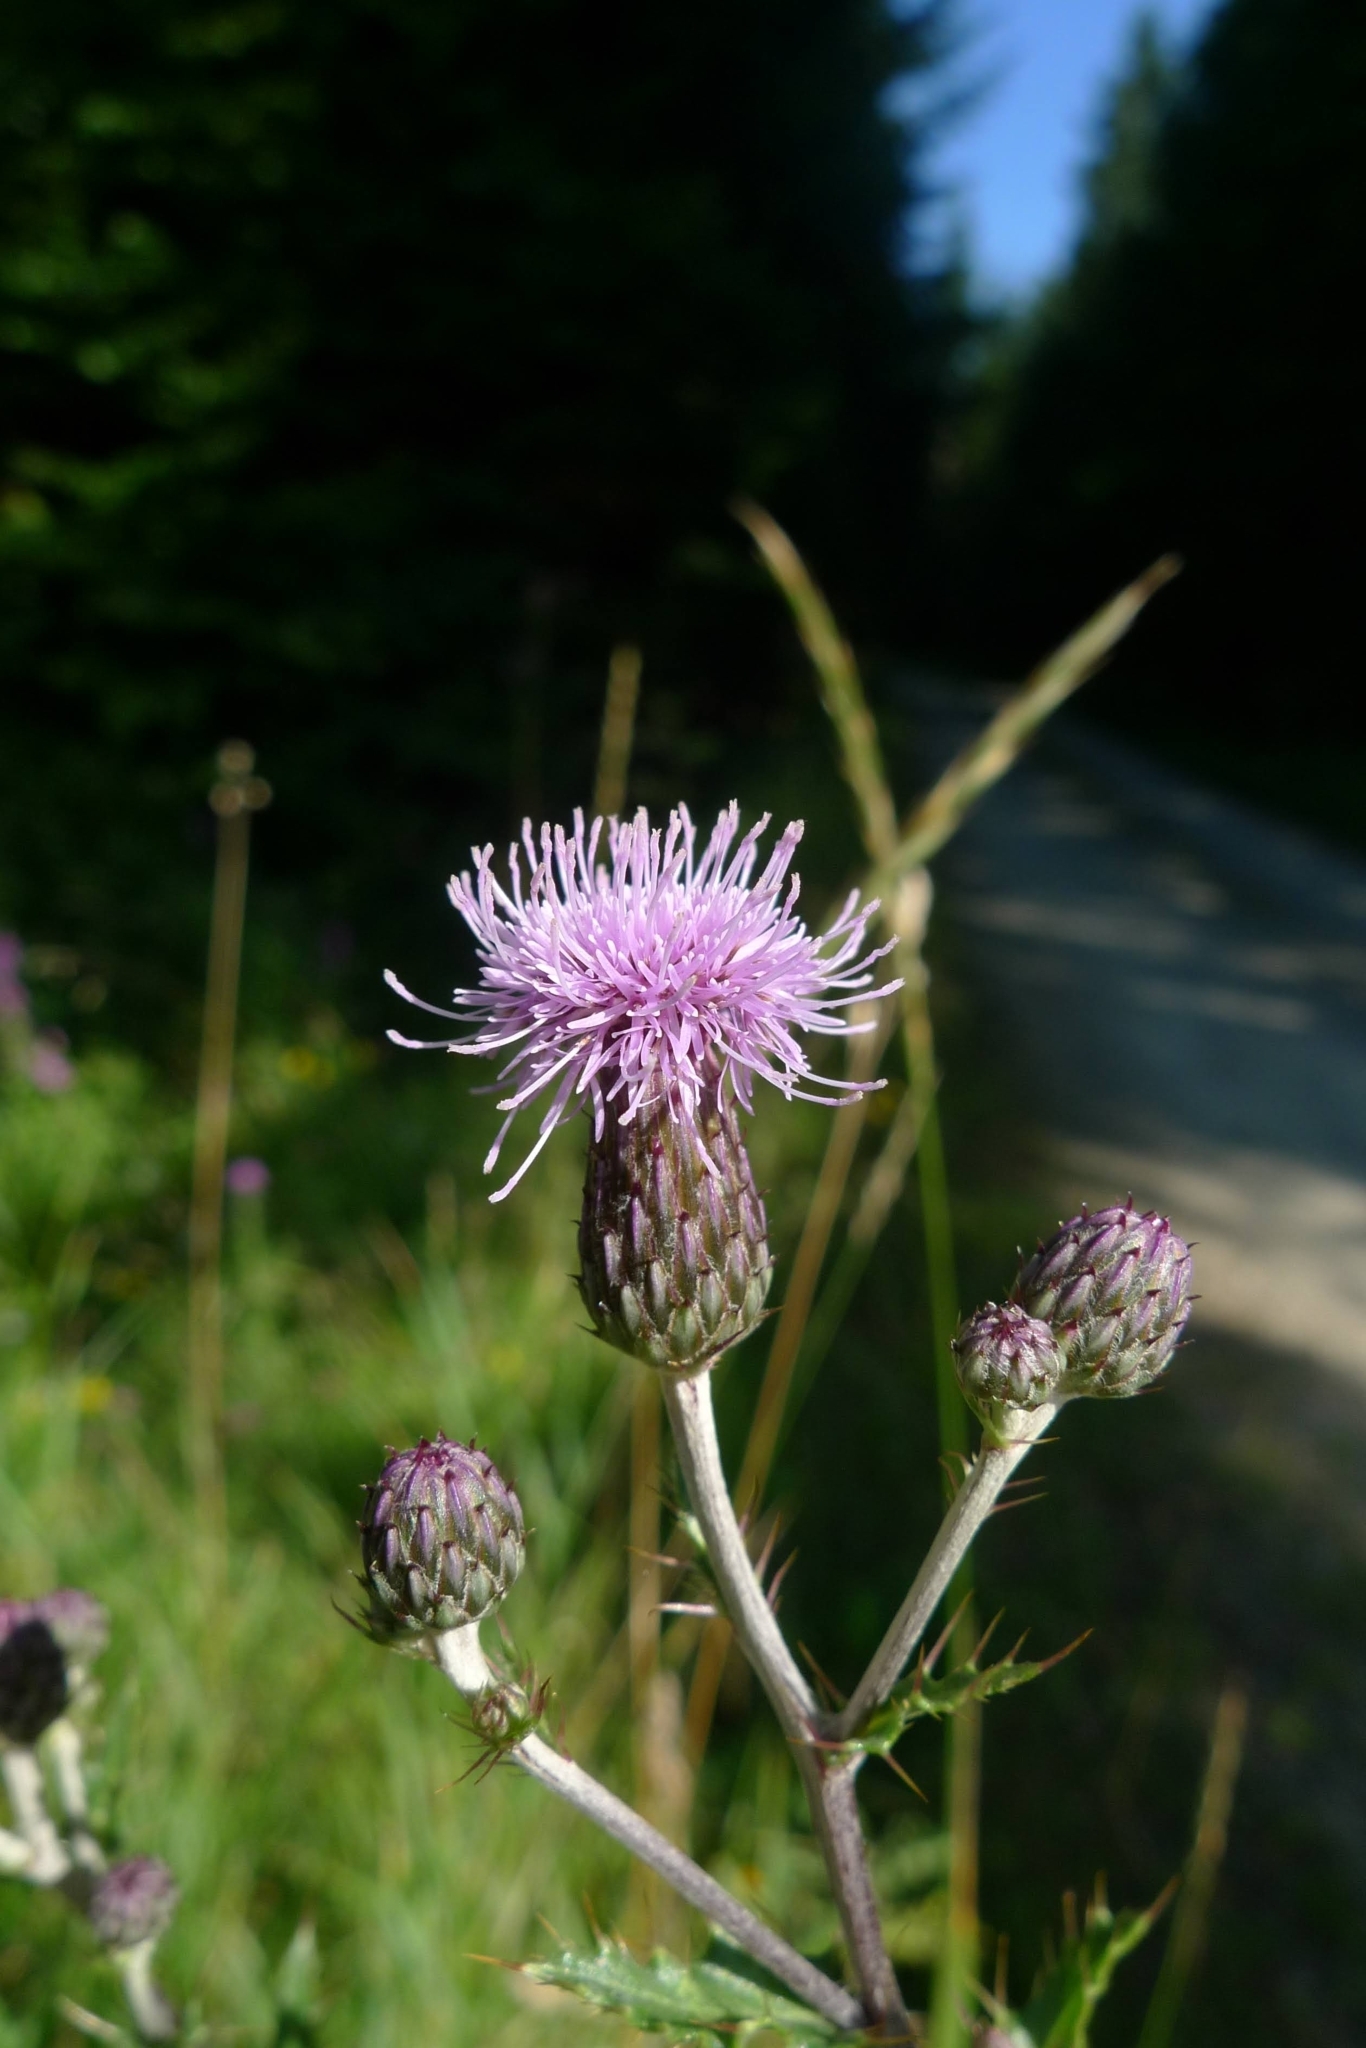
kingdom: Plantae
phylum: Tracheophyta
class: Magnoliopsida
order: Asterales
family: Asteraceae
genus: Cirsium
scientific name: Cirsium arvense
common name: Creeping thistle
